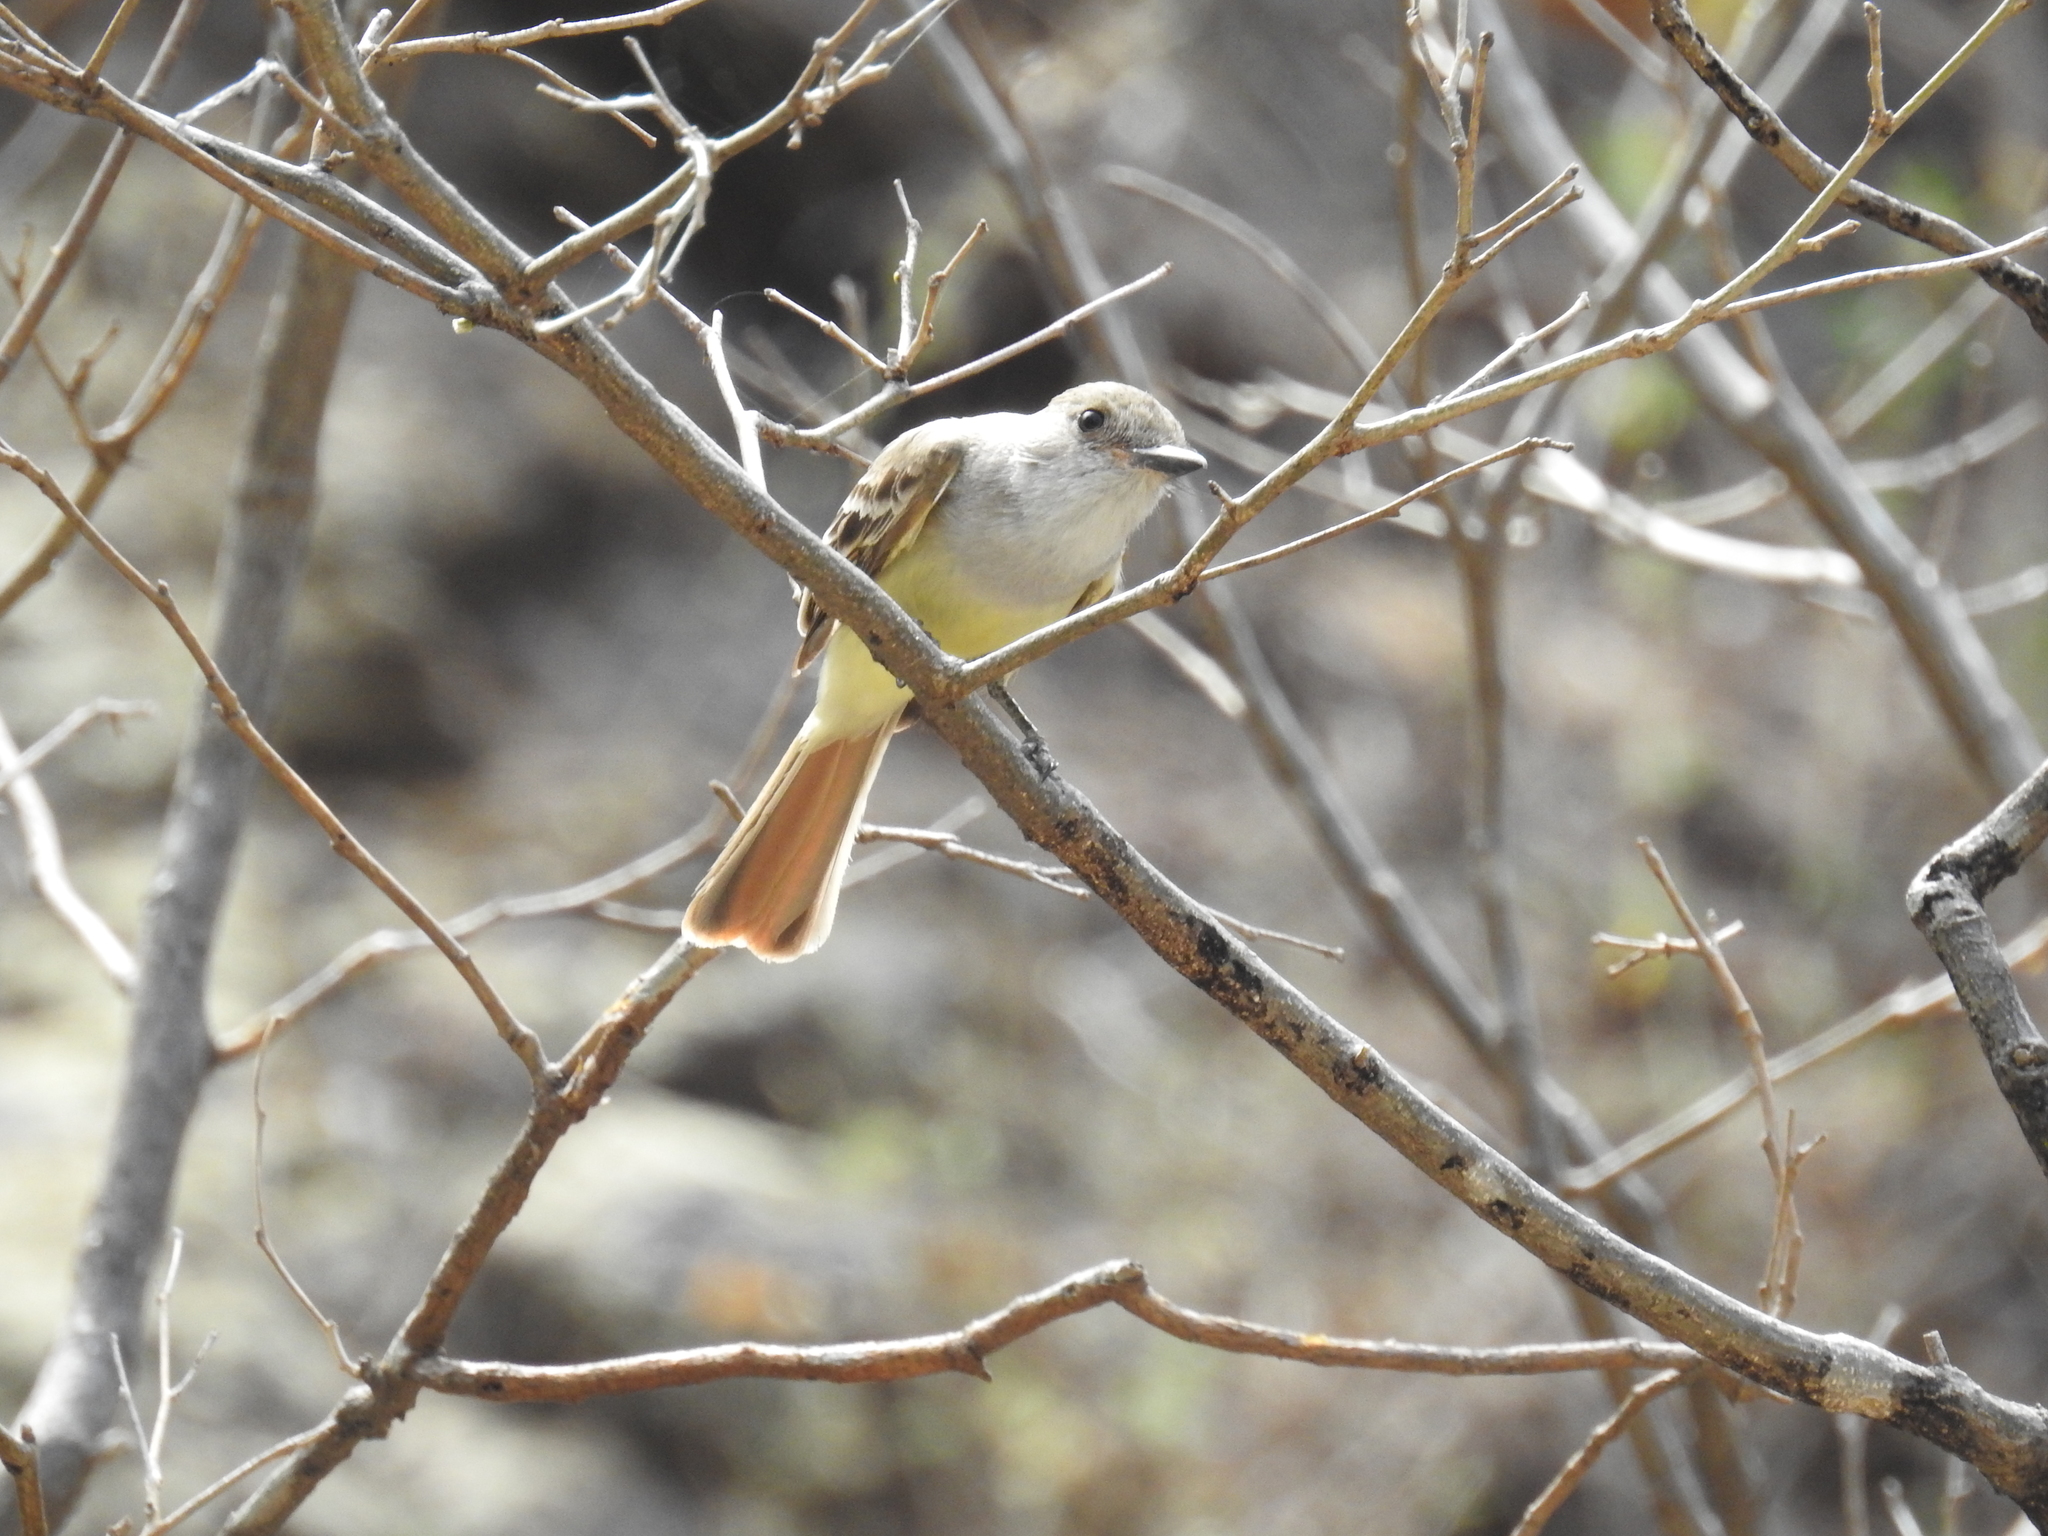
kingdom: Animalia
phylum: Chordata
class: Aves
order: Passeriformes
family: Tyrannidae
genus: Myiarchus
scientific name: Myiarchus nuttingi
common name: Nutting's flycatcher
